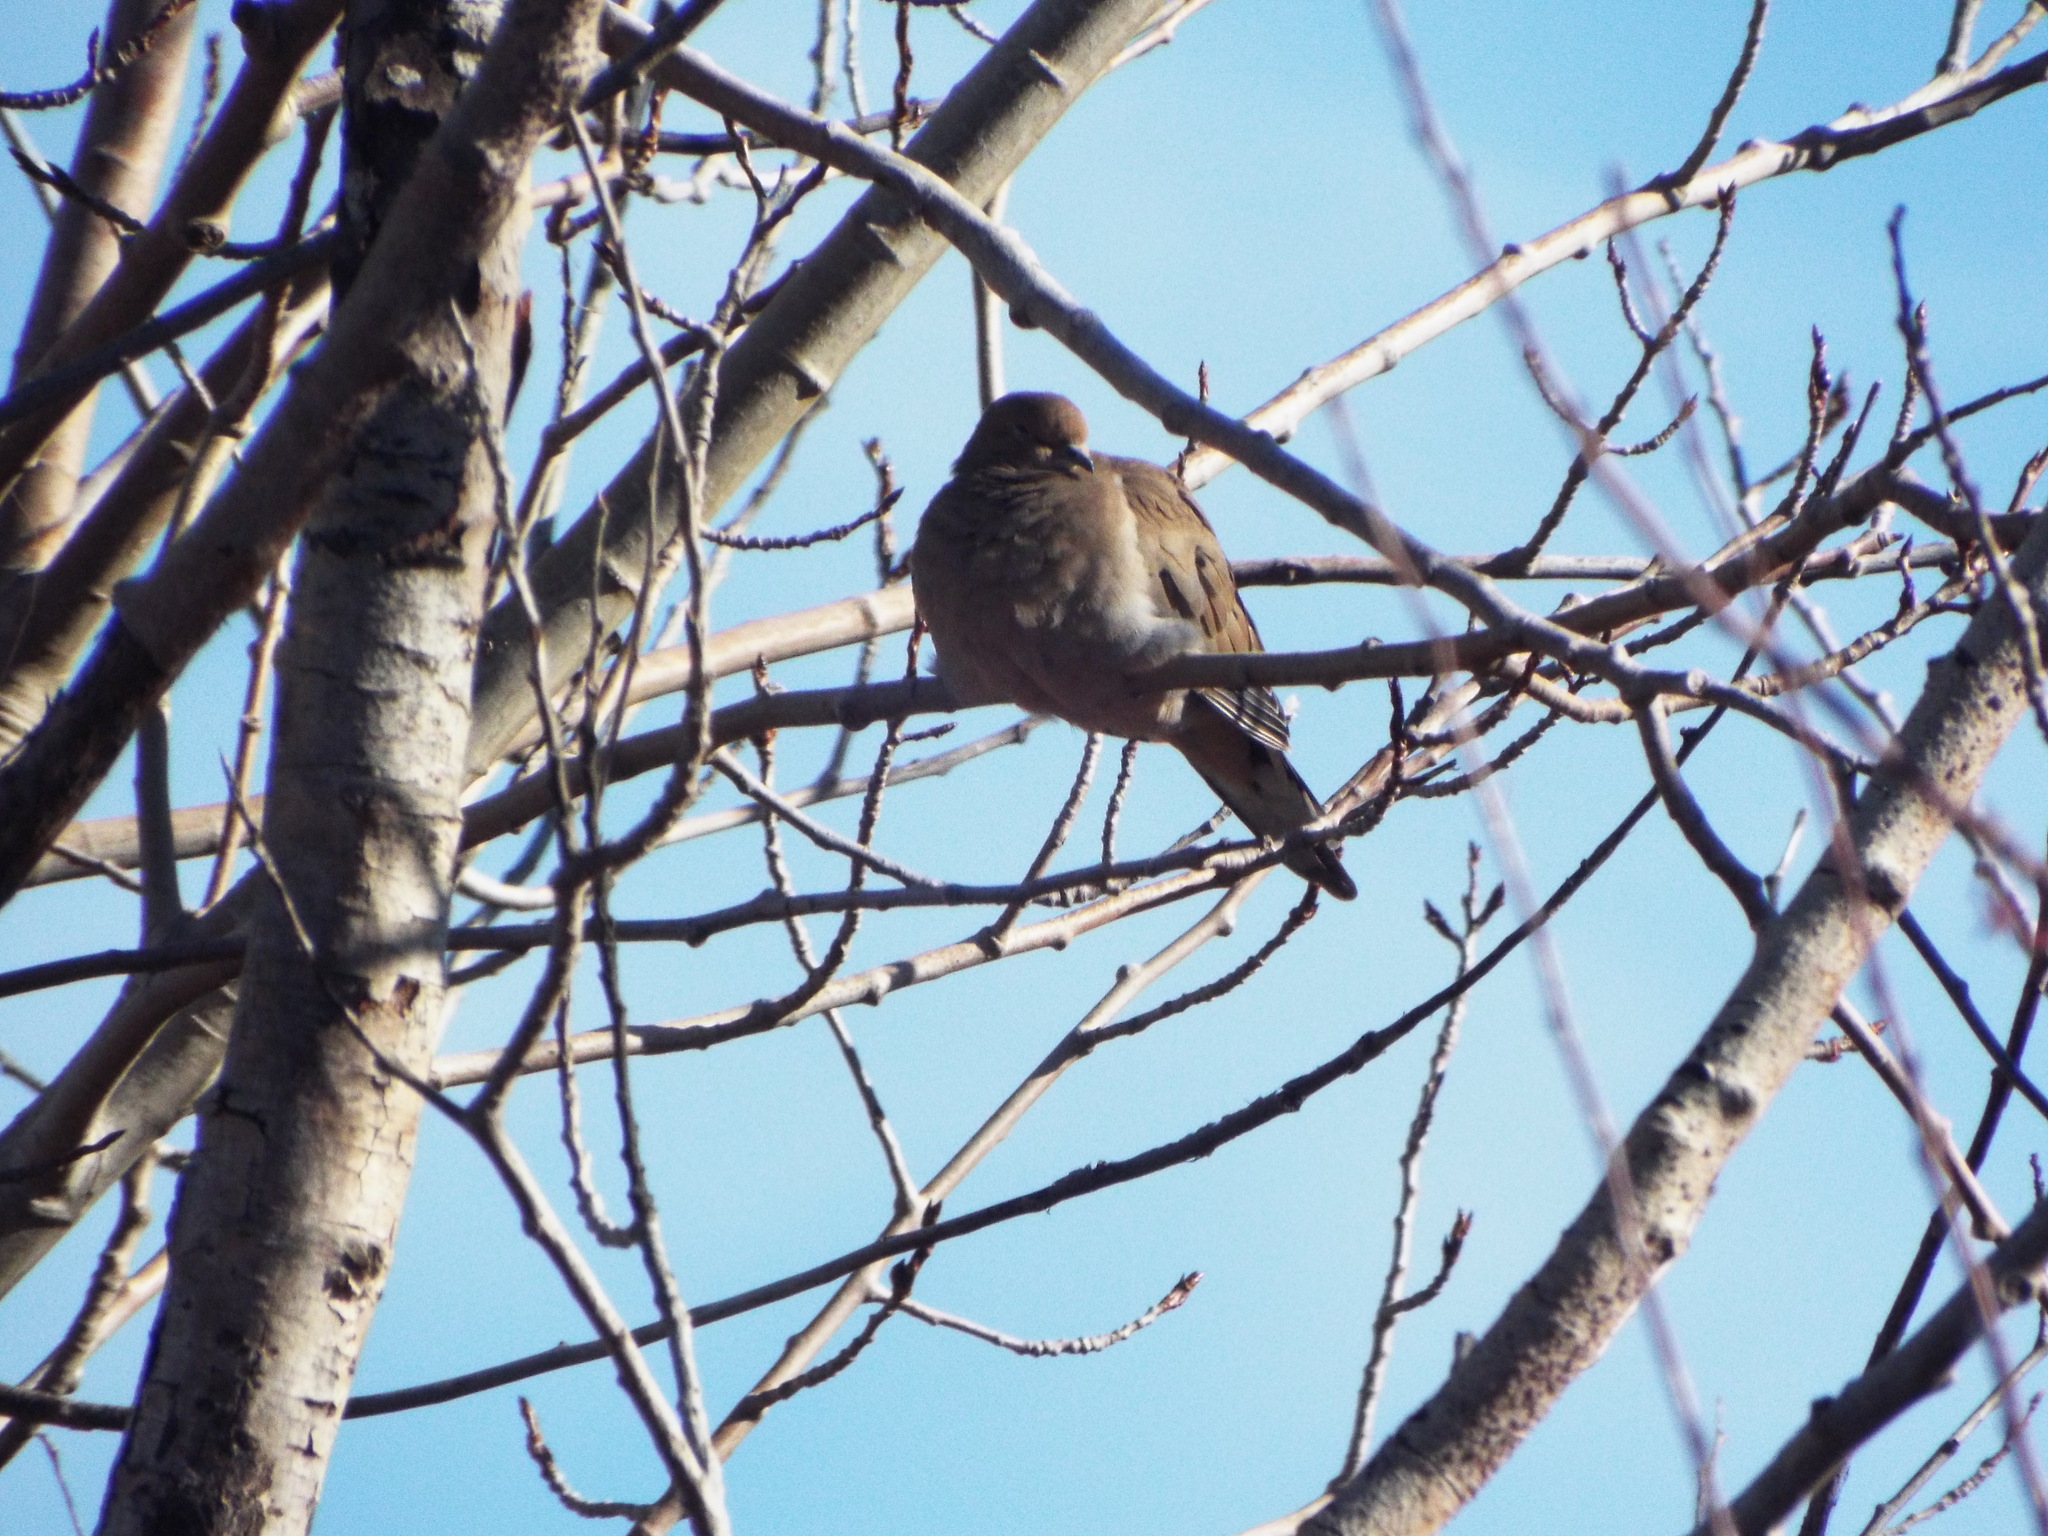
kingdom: Animalia
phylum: Chordata
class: Aves
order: Columbiformes
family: Columbidae
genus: Zenaida
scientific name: Zenaida macroura
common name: Mourning dove
